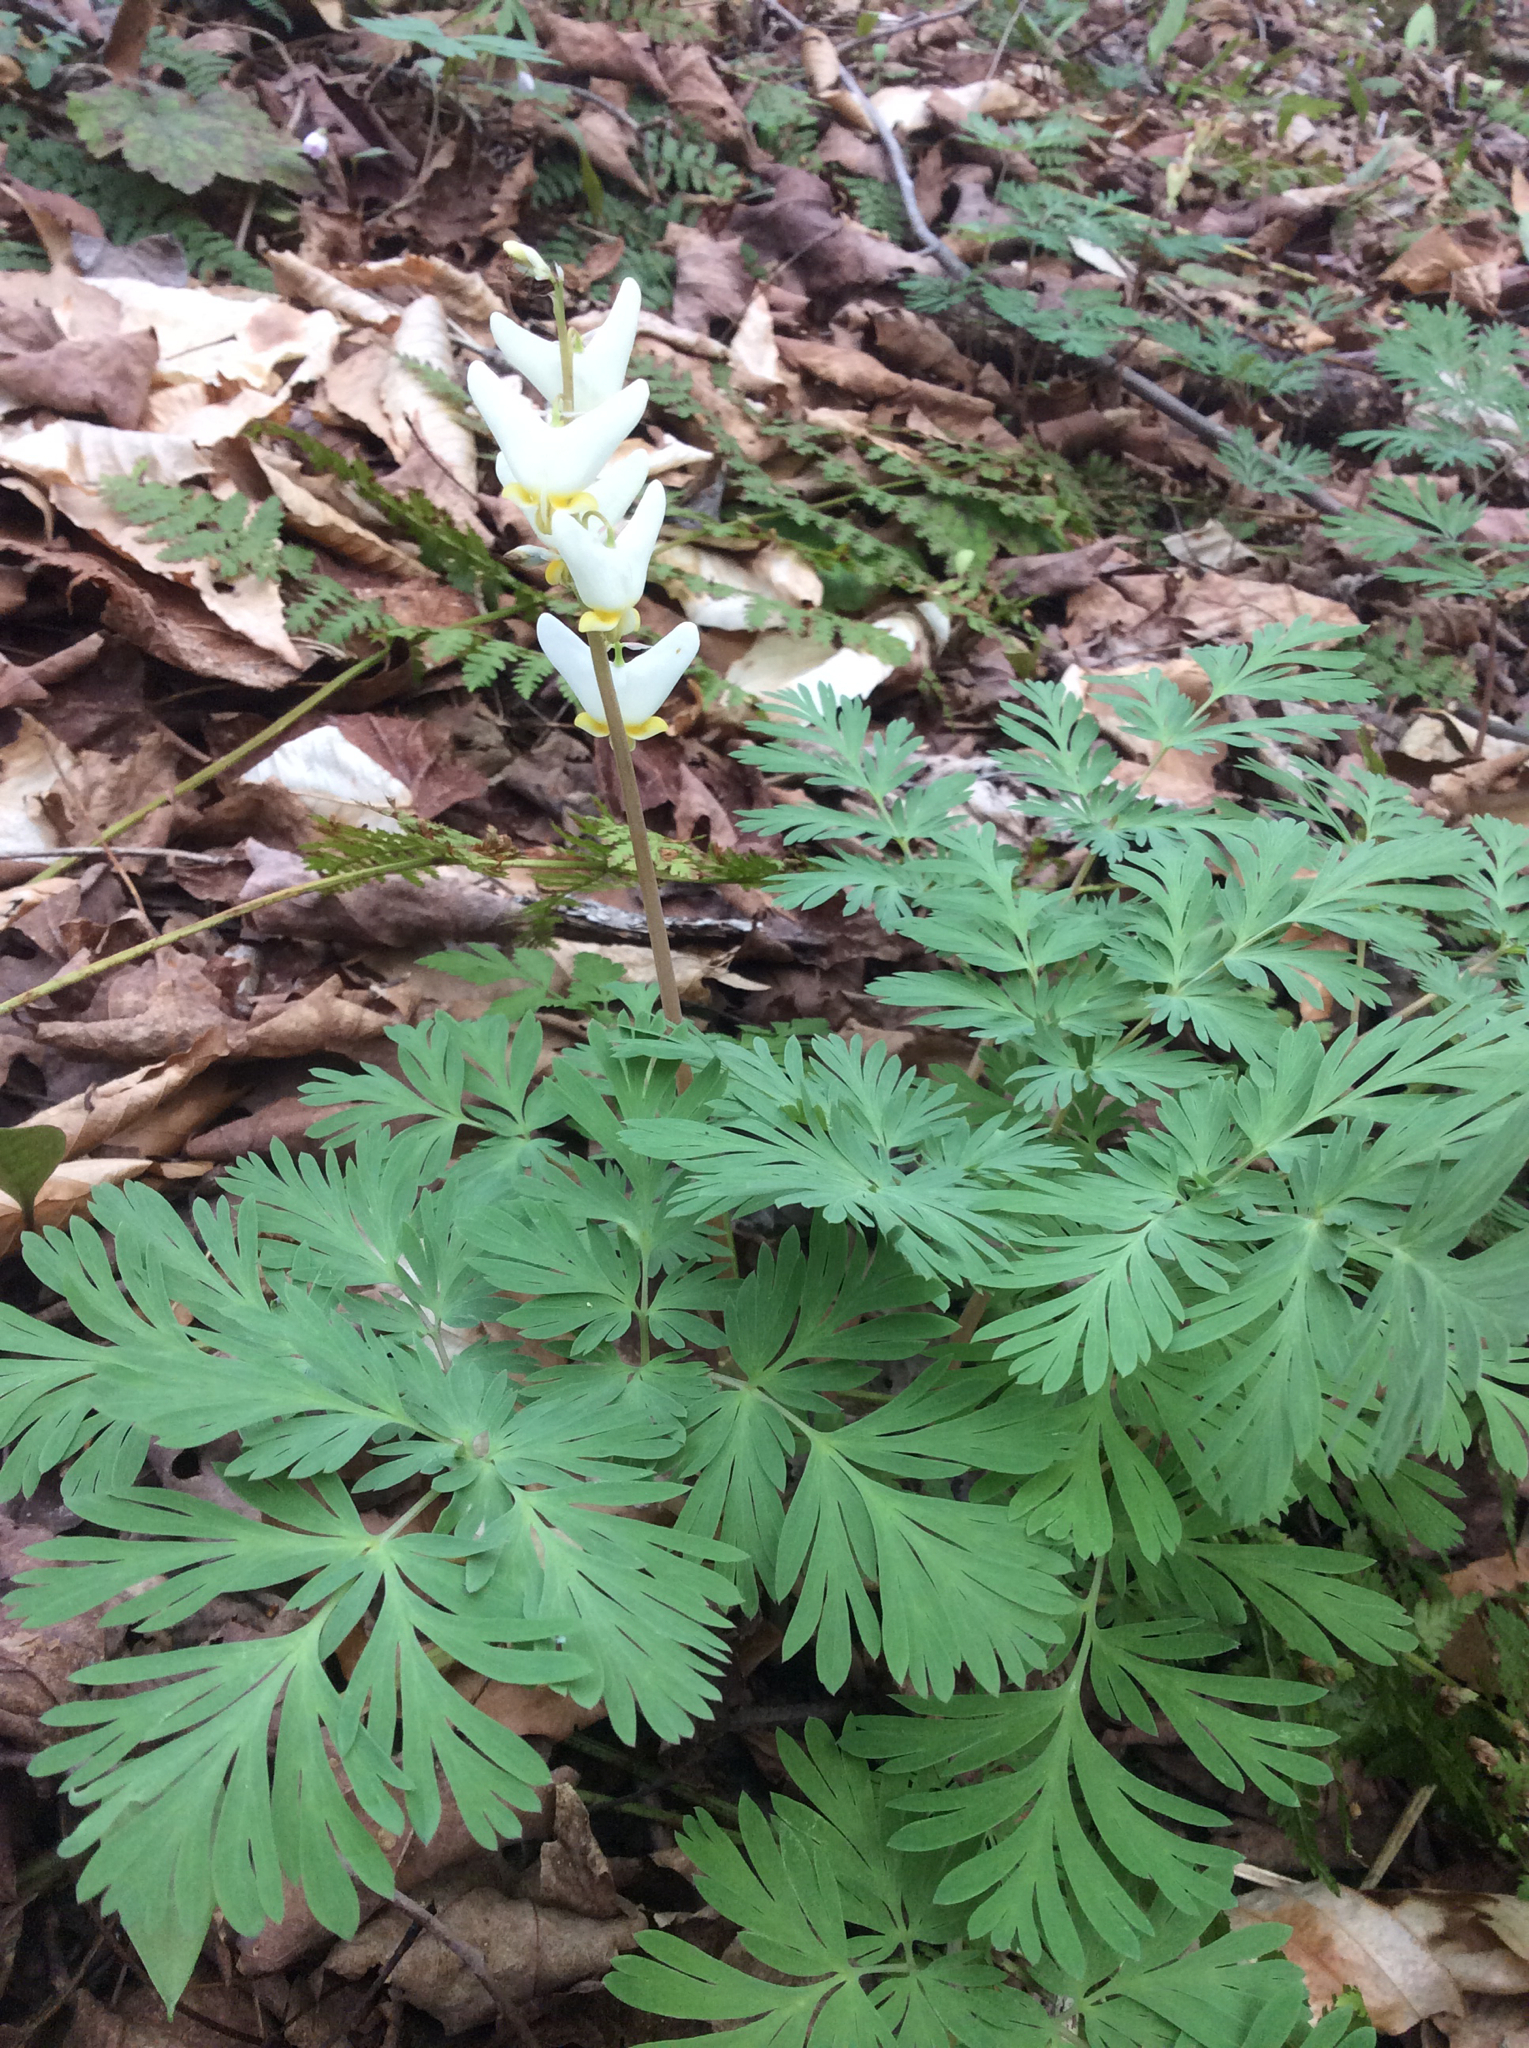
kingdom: Plantae
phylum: Tracheophyta
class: Magnoliopsida
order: Ranunculales
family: Papaveraceae
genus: Dicentra
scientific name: Dicentra cucullaria
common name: Dutchman's breeches
